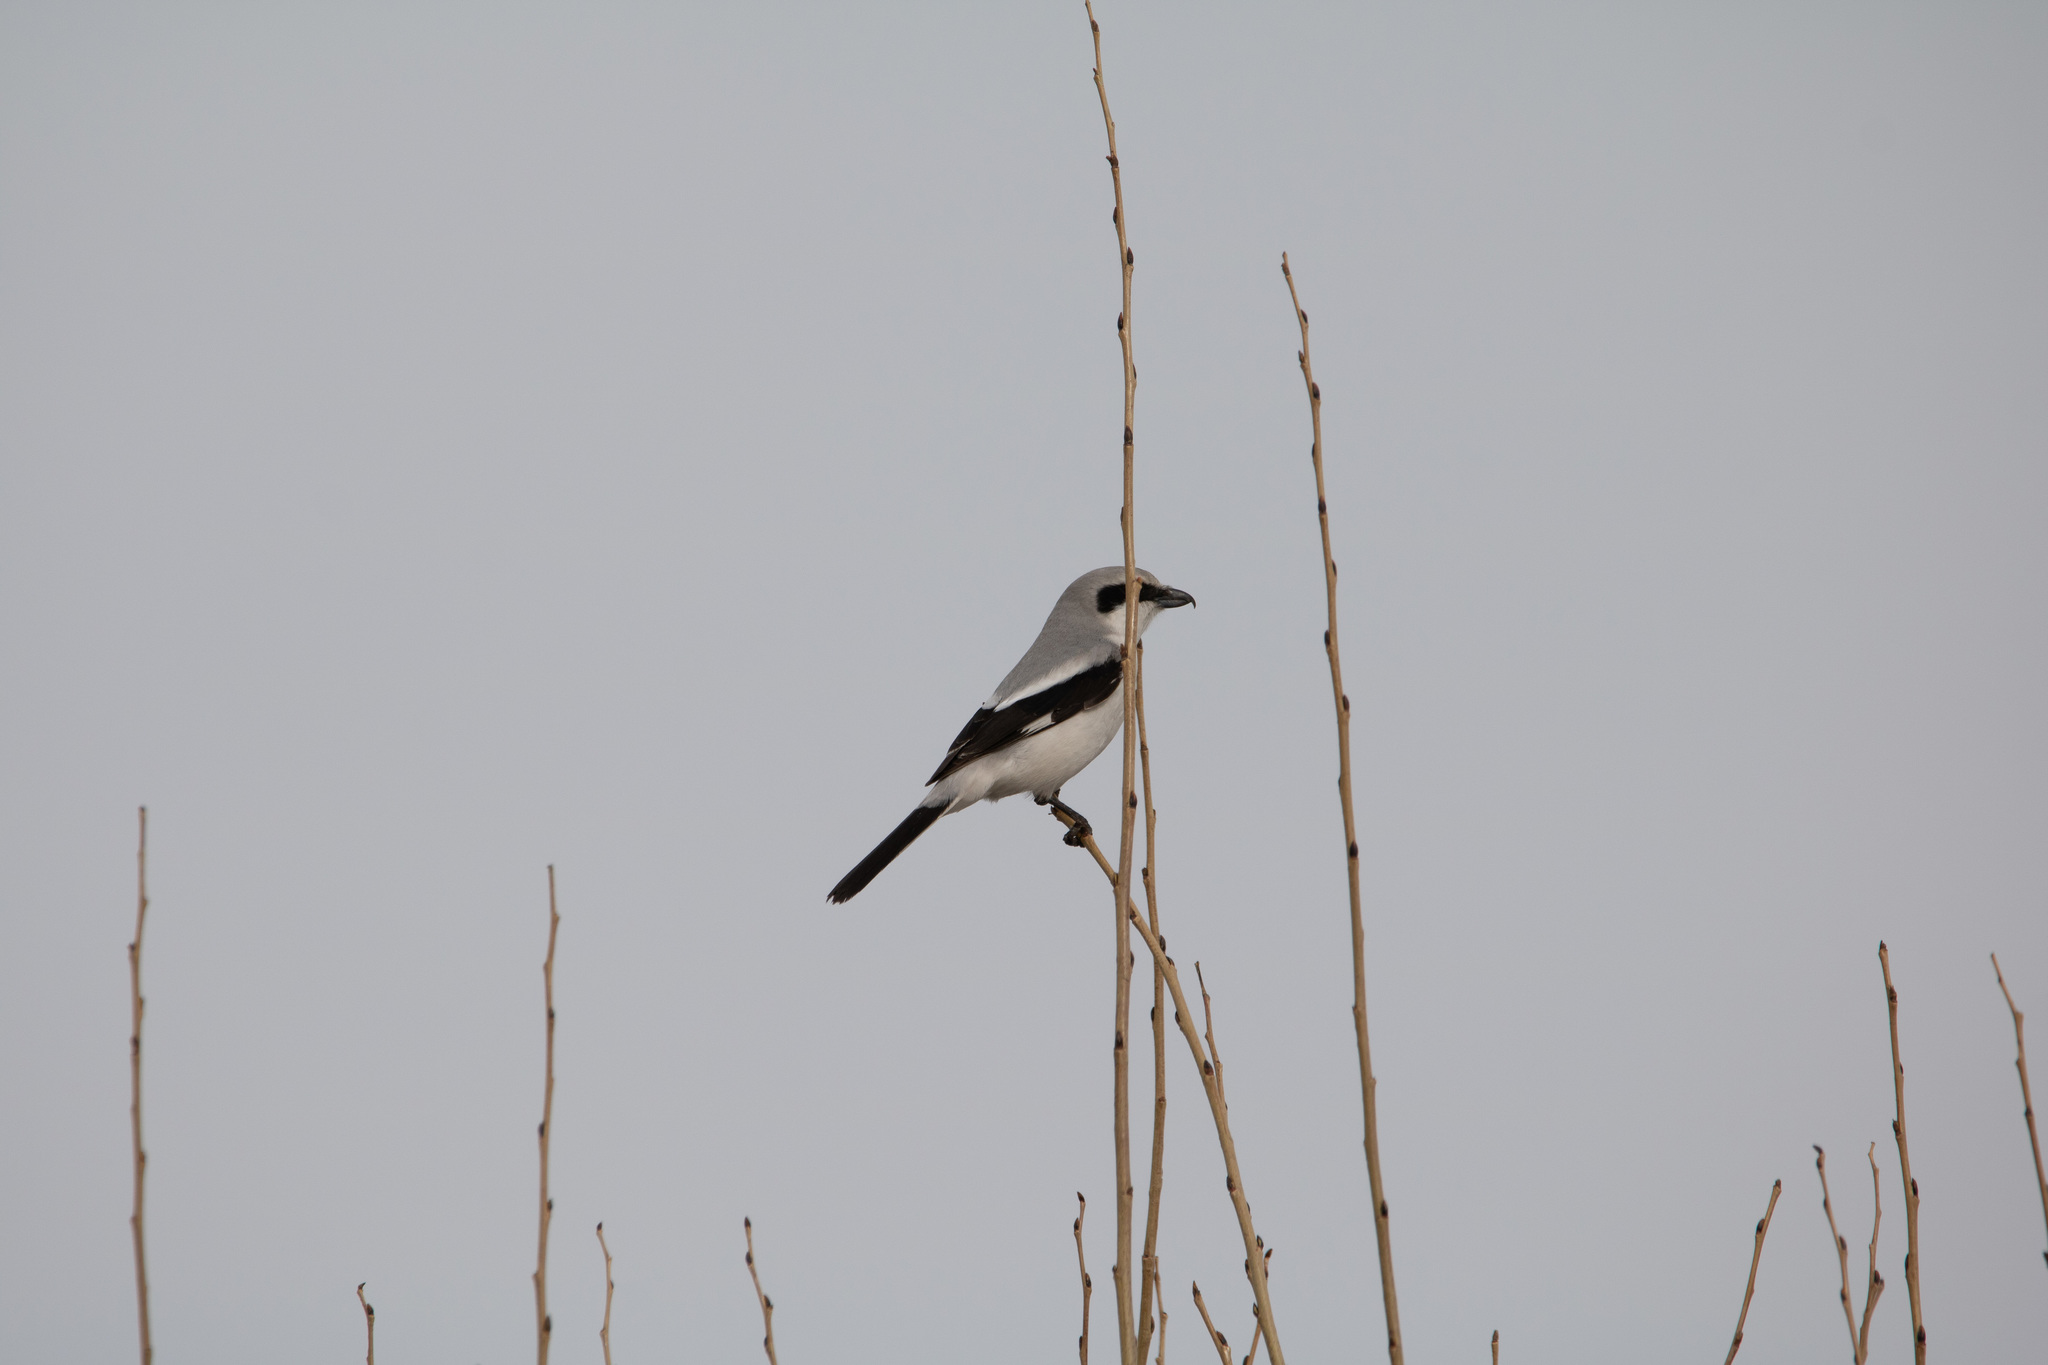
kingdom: Animalia
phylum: Chordata
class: Aves
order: Passeriformes
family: Laniidae
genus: Lanius
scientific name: Lanius excubitor
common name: Great grey shrike
